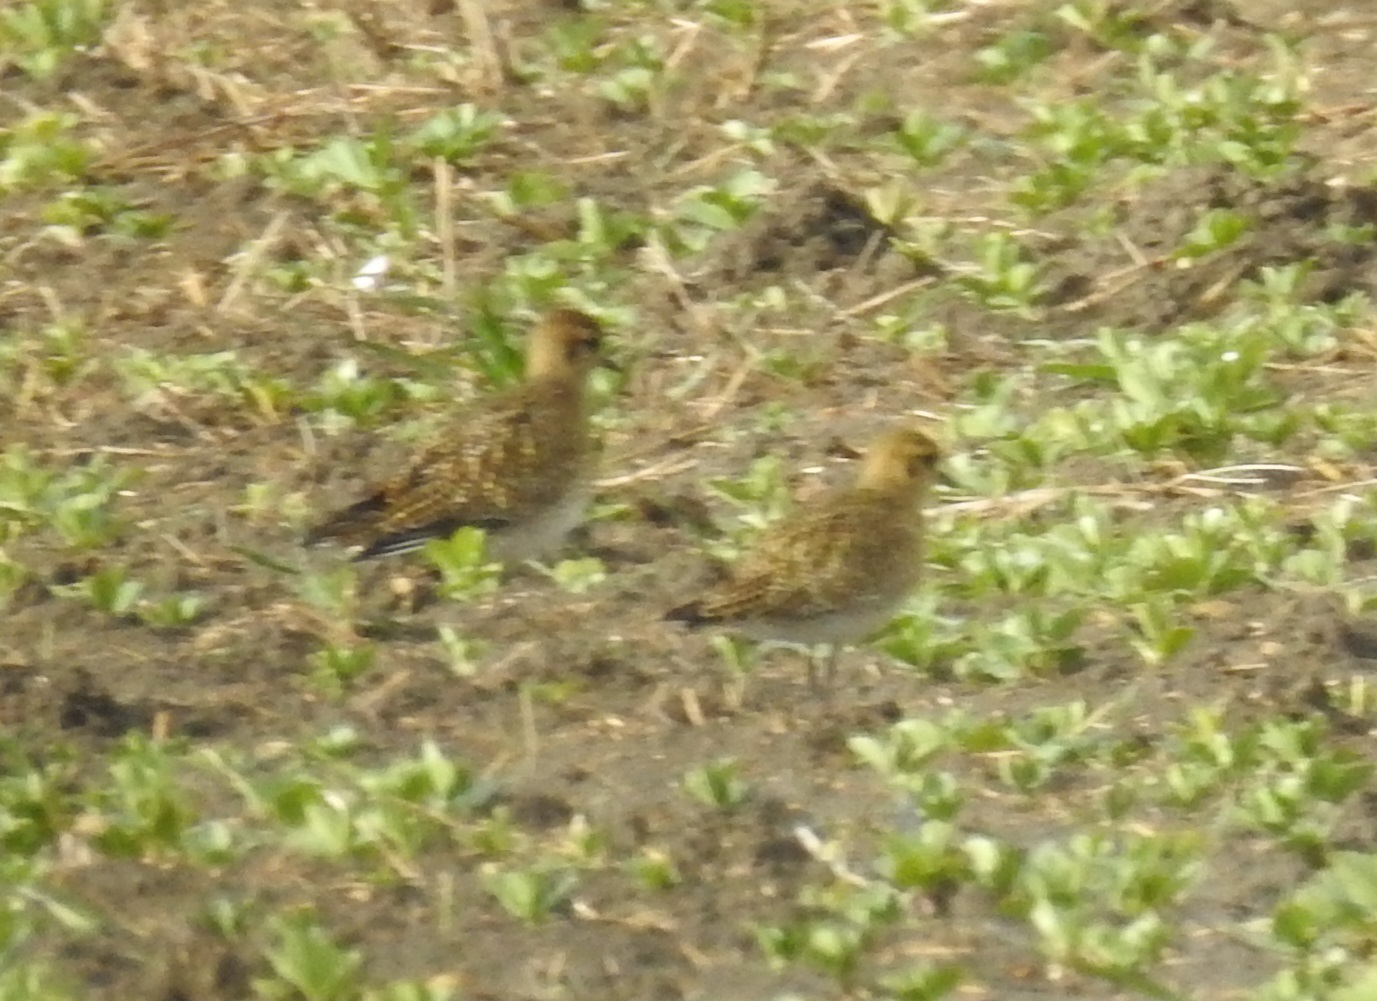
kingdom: Animalia
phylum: Chordata
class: Aves
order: Charadriiformes
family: Charadriidae
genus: Pluvialis
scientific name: Pluvialis apricaria
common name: European golden plover
